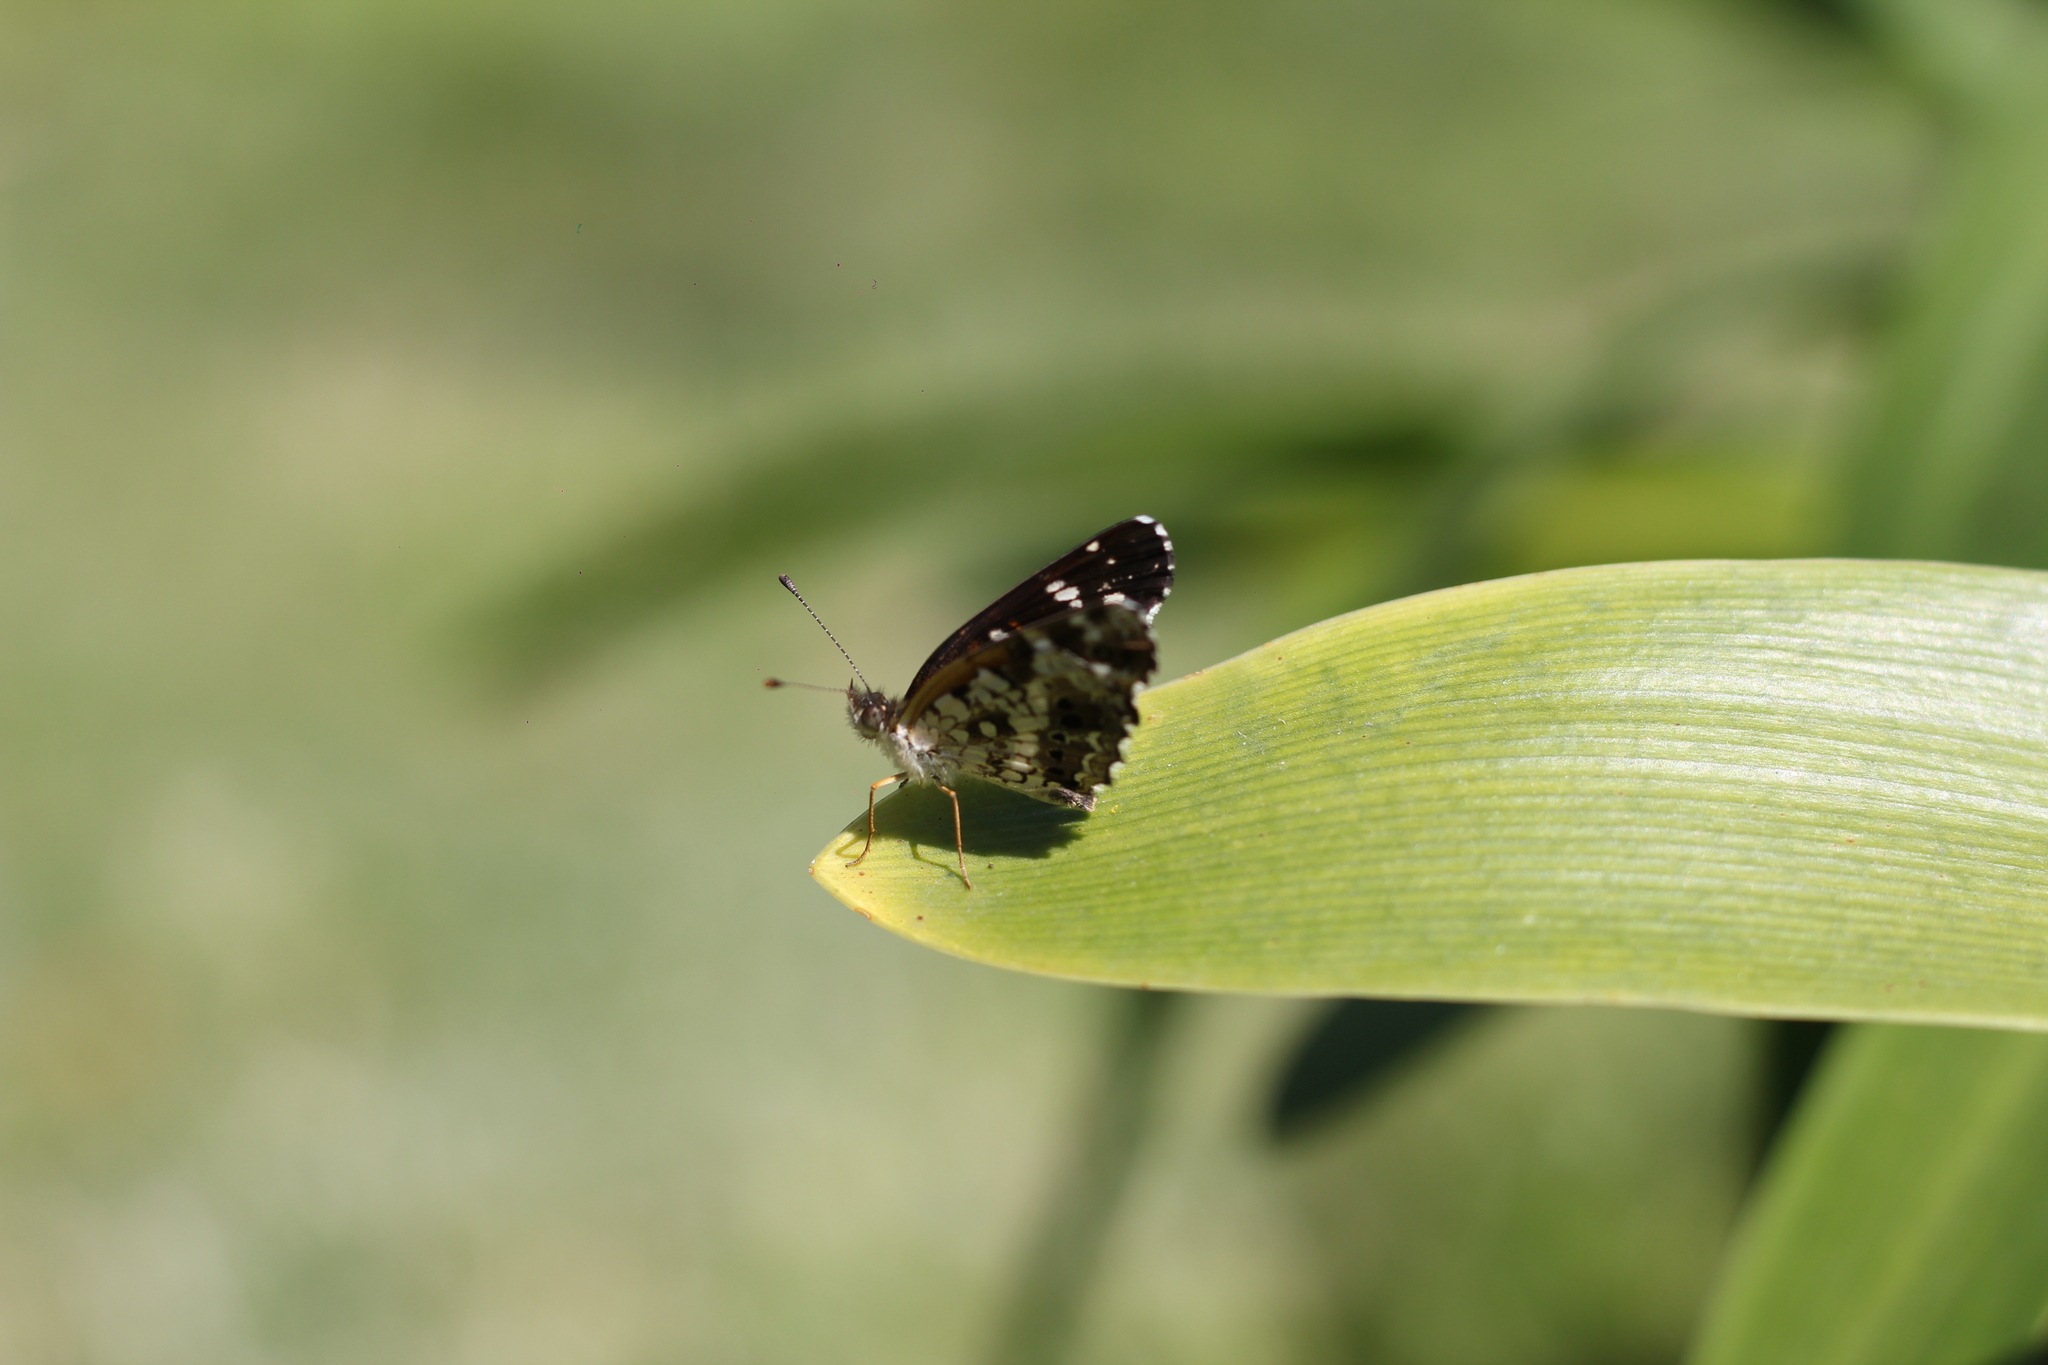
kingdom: Animalia
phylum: Arthropoda
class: Insecta
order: Lepidoptera
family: Nymphalidae
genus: Ortilia
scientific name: Ortilia ithra
